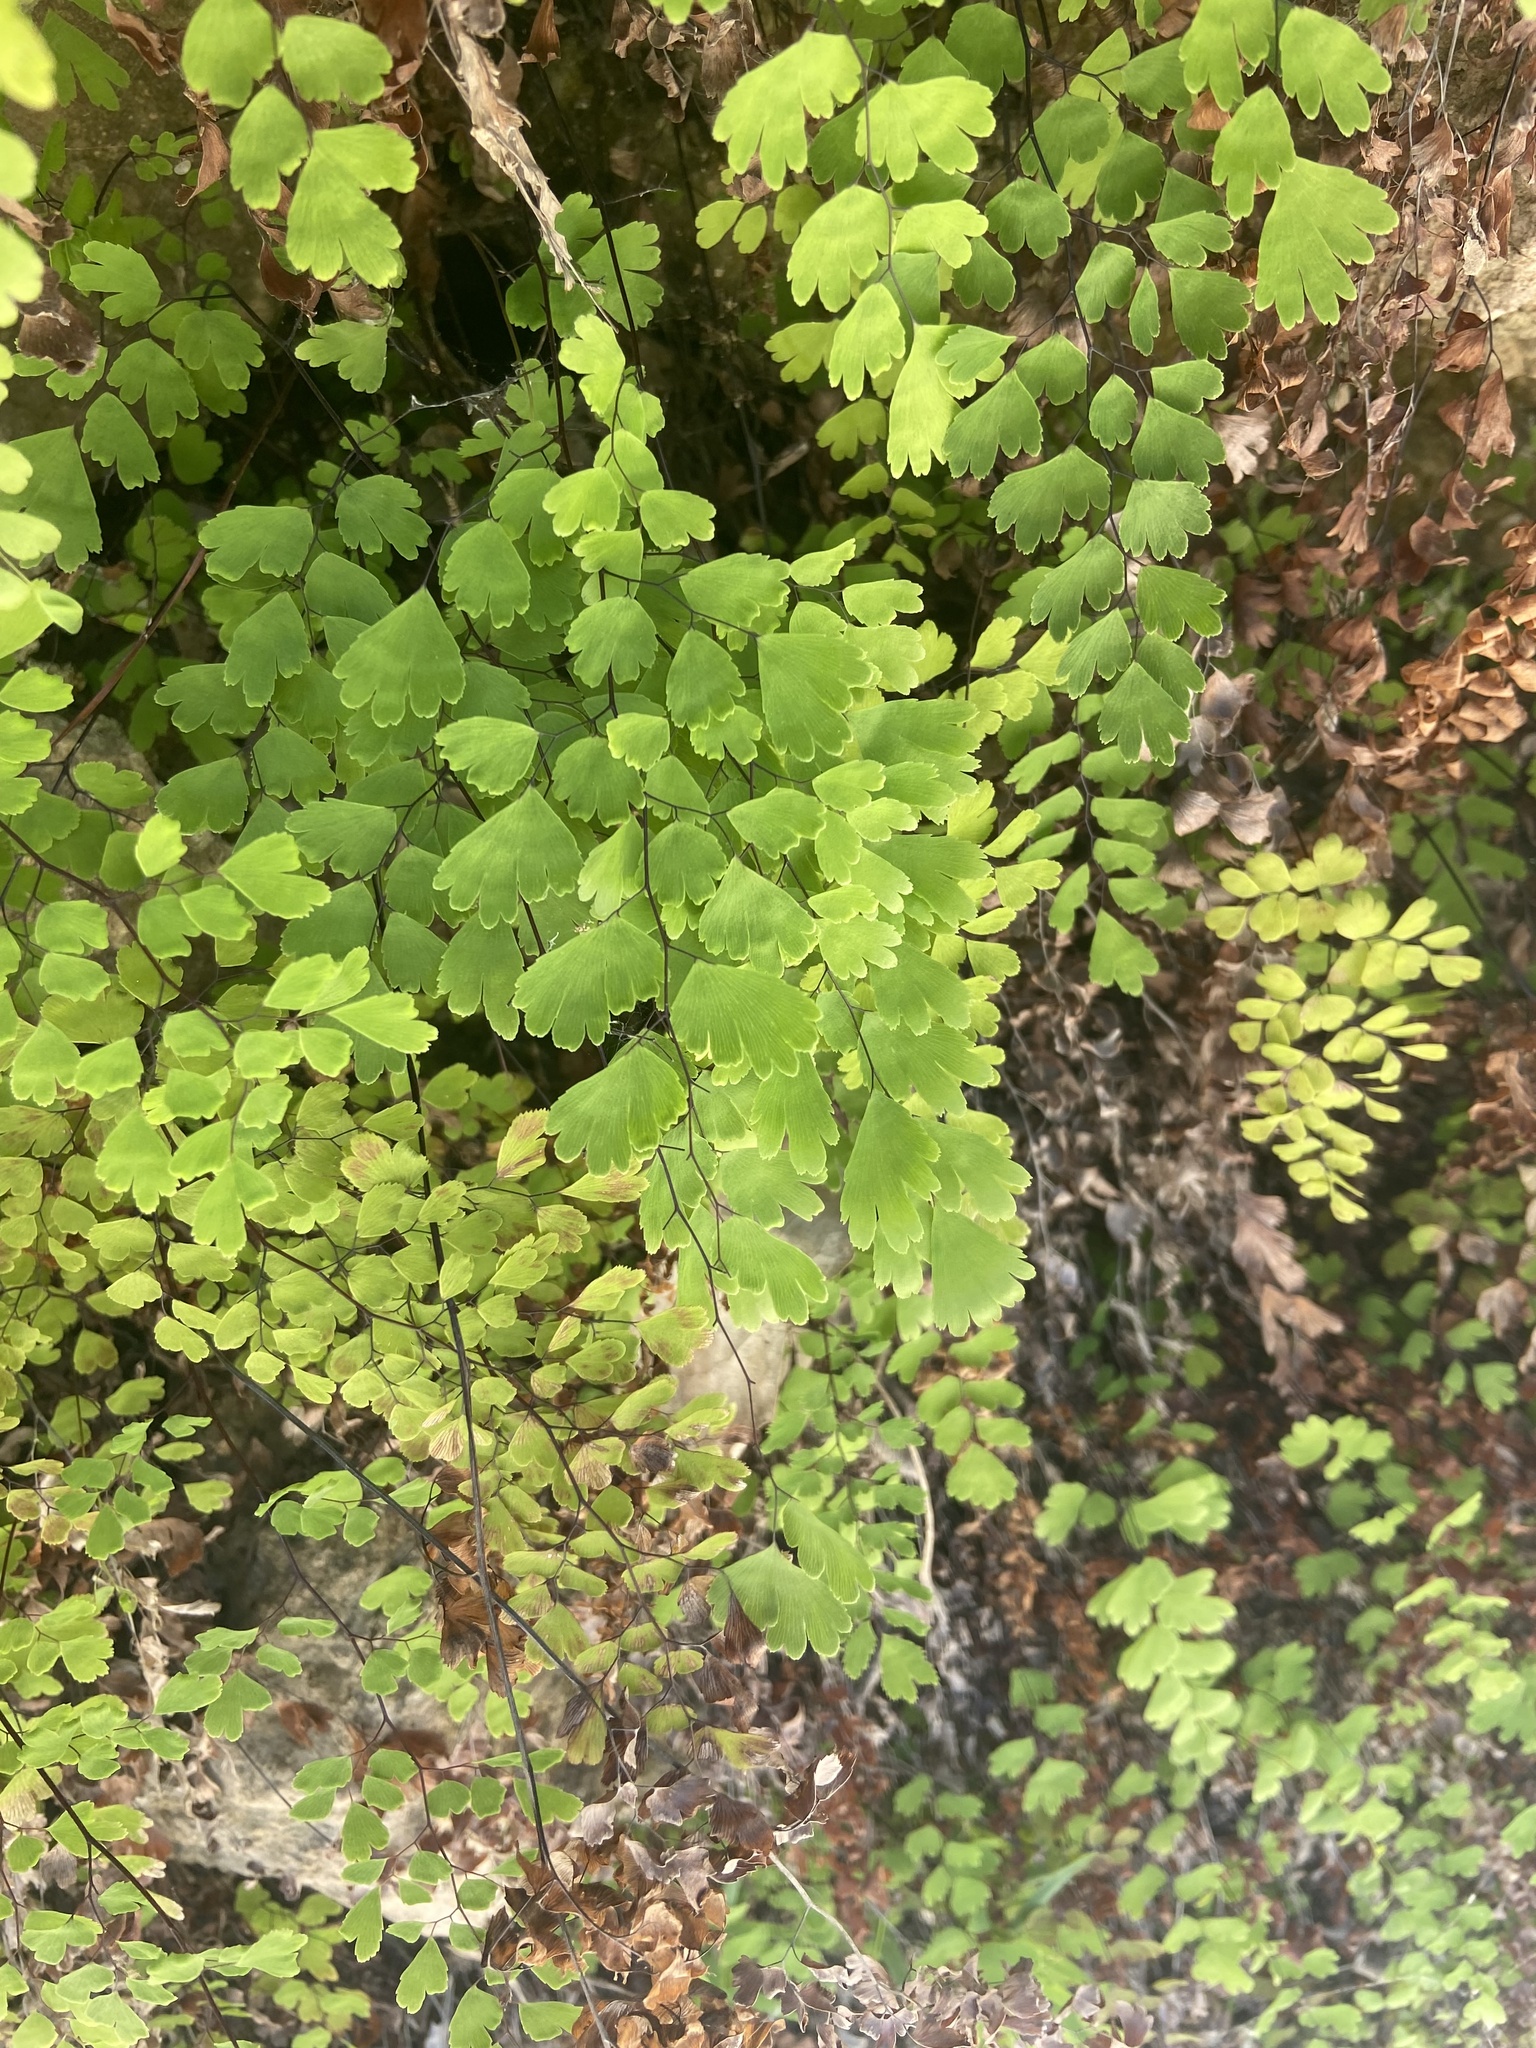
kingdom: Plantae
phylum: Tracheophyta
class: Polypodiopsida
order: Polypodiales
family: Pteridaceae
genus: Adiantum
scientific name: Adiantum capillus-veneris
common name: Maidenhair fern
